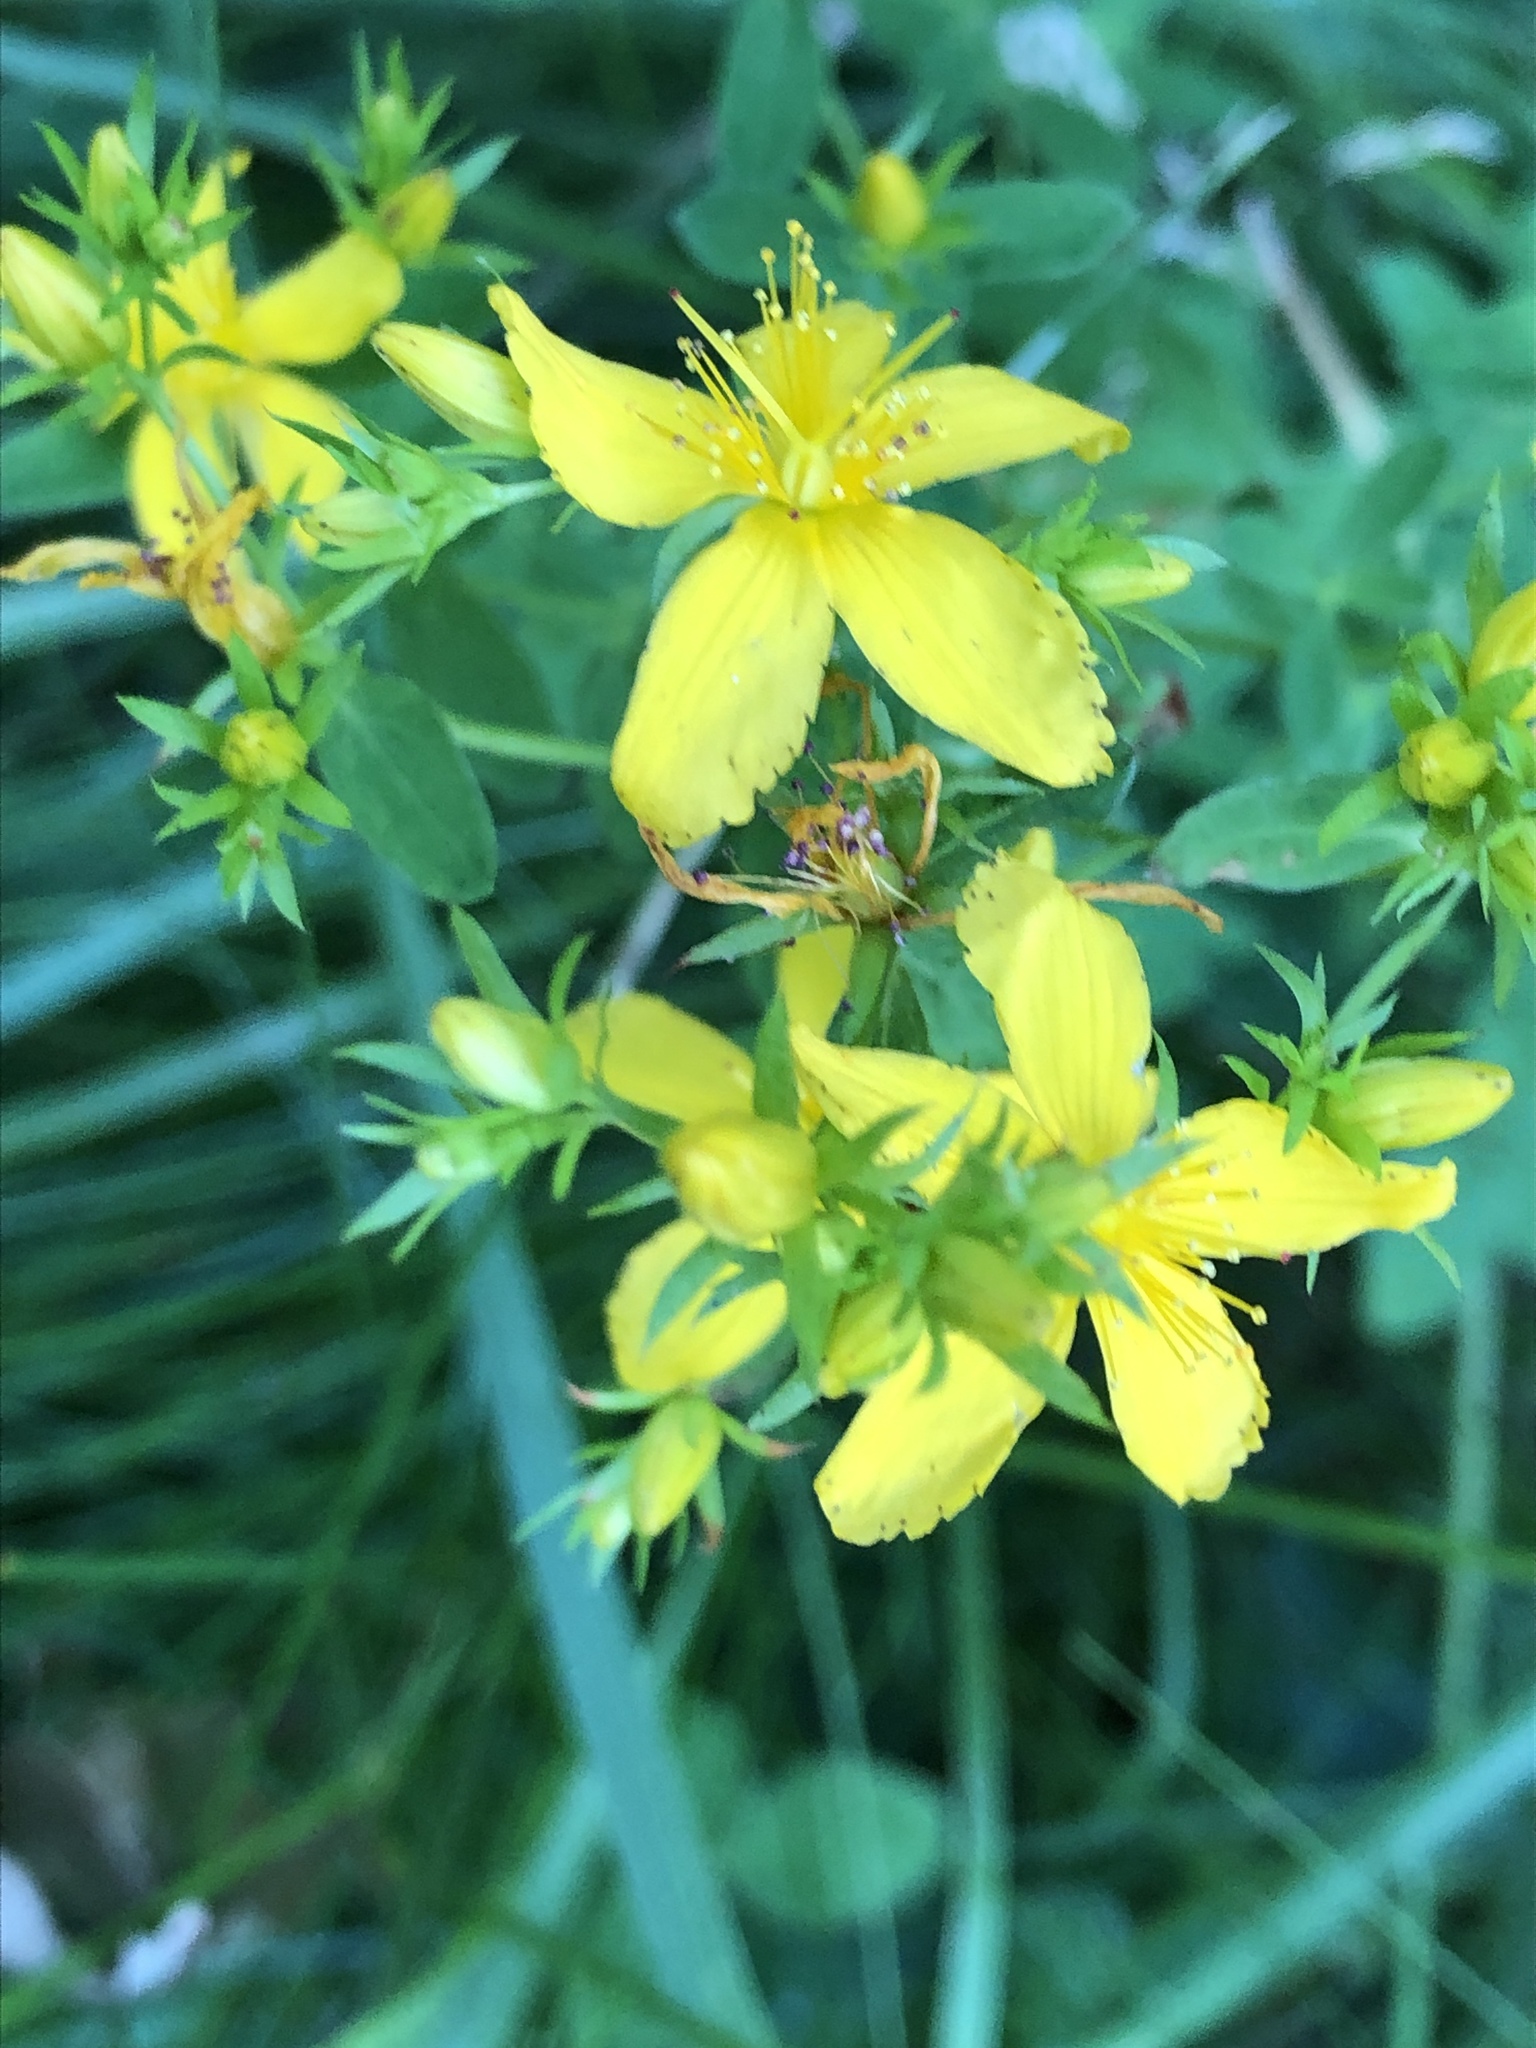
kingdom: Plantae
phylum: Tracheophyta
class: Magnoliopsida
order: Malpighiales
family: Hypericaceae
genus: Hypericum
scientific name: Hypericum perforatum
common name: Common st. johnswort
